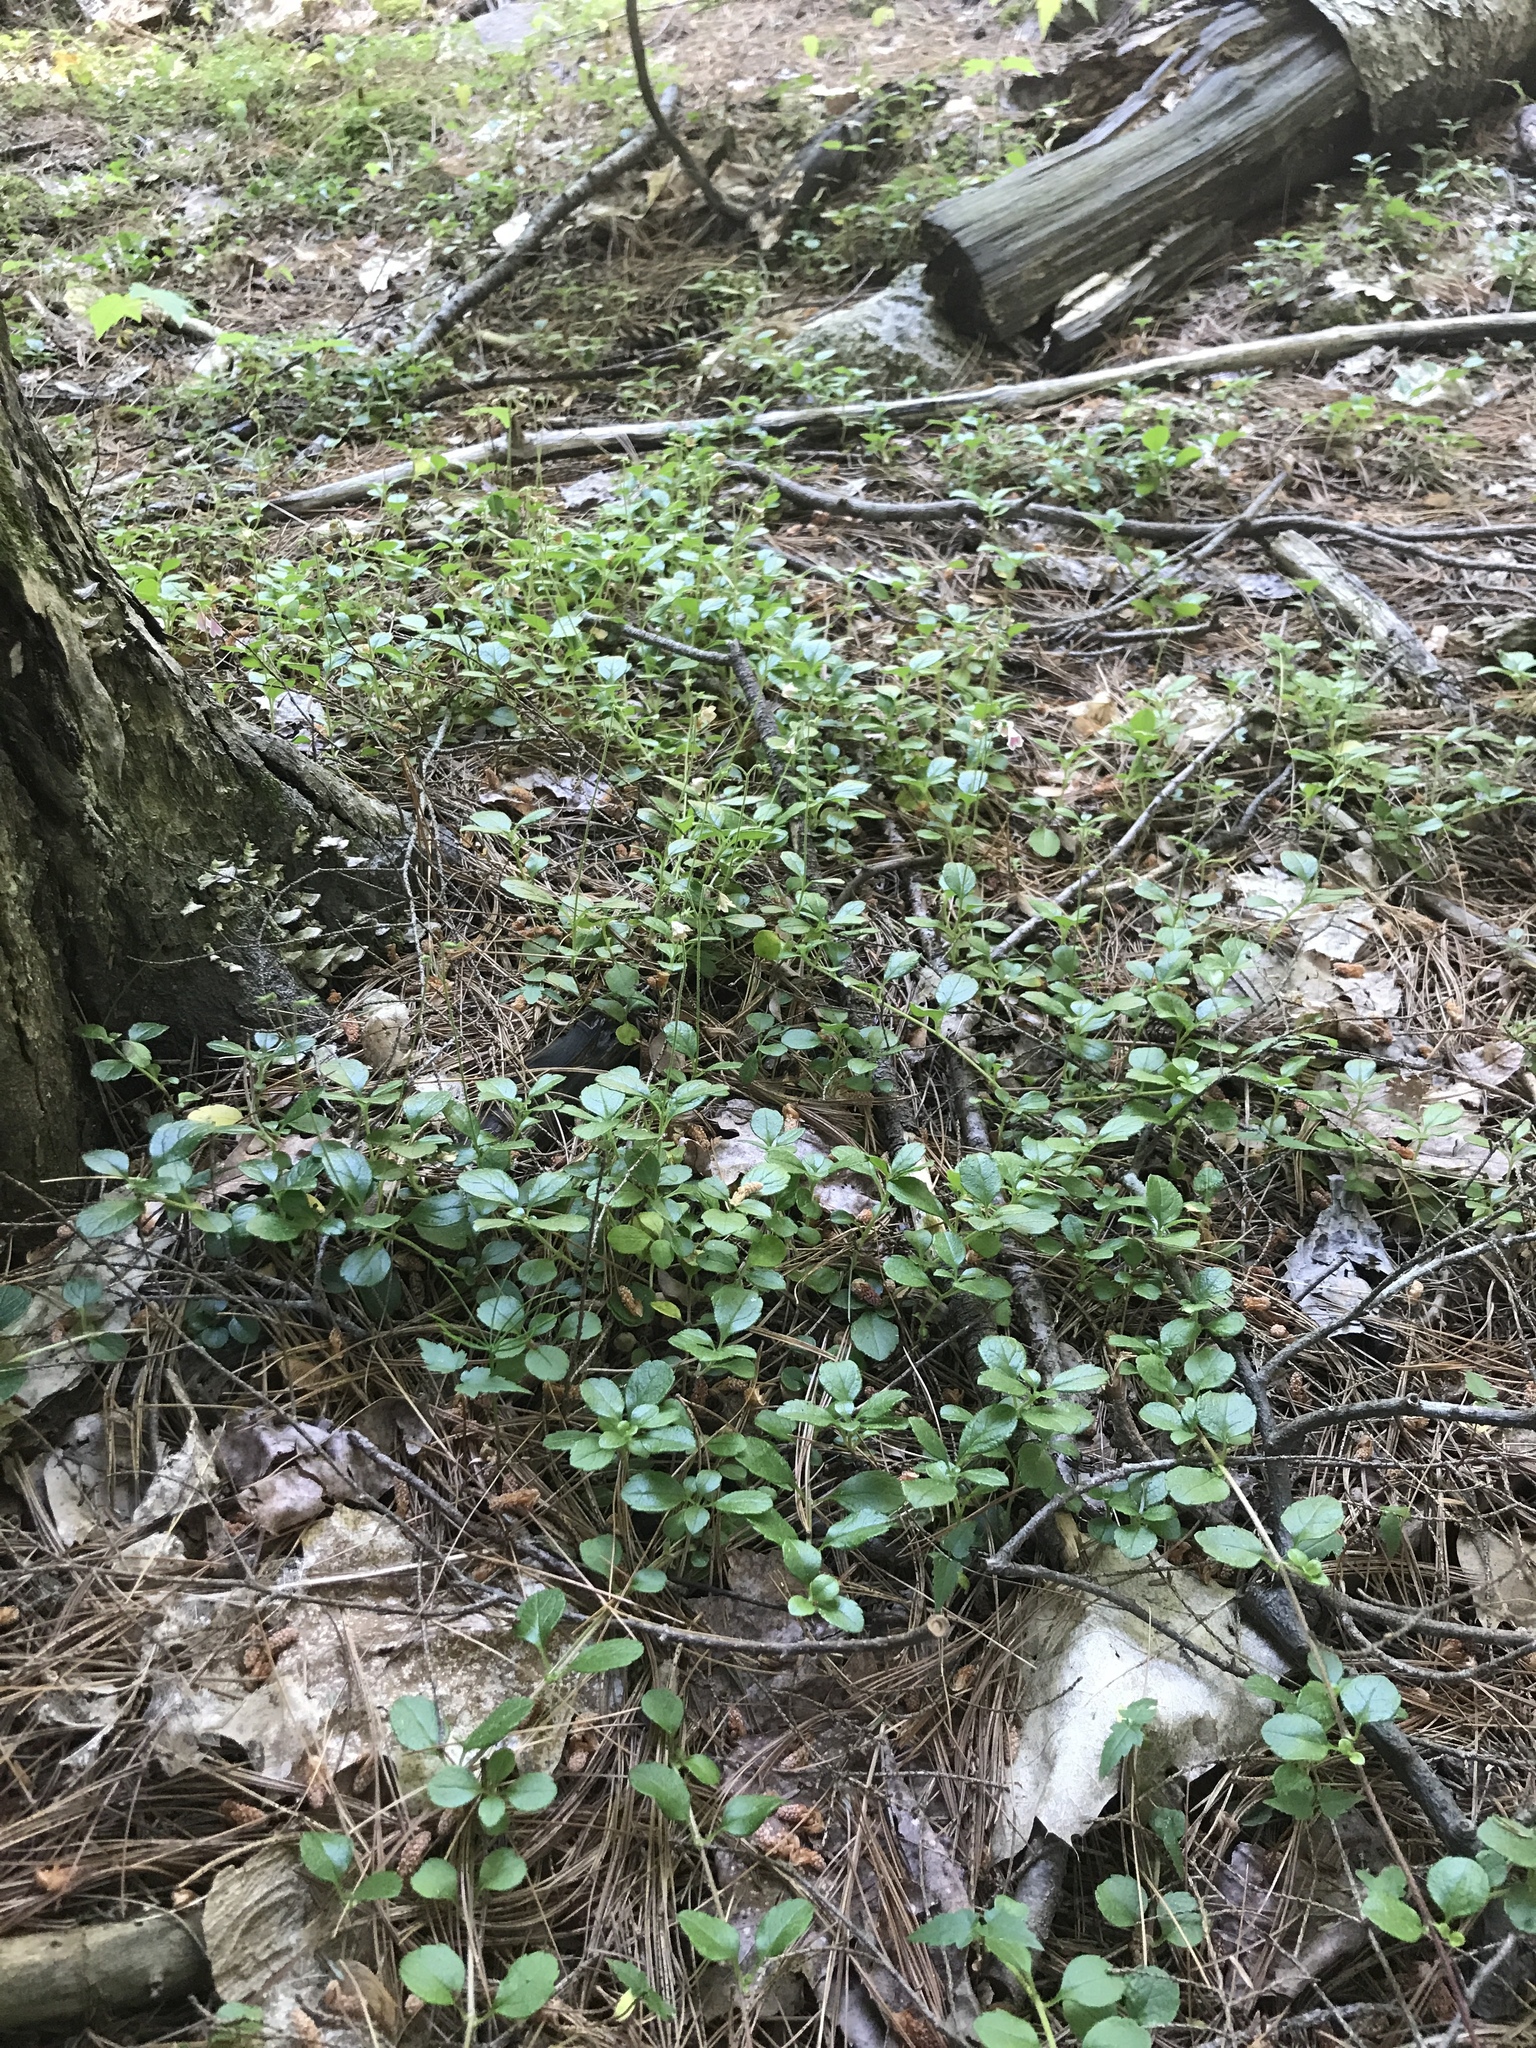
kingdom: Plantae
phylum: Tracheophyta
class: Magnoliopsida
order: Ericales
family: Ericaceae
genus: Gaultheria
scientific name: Gaultheria procumbens
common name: Checkerberry
